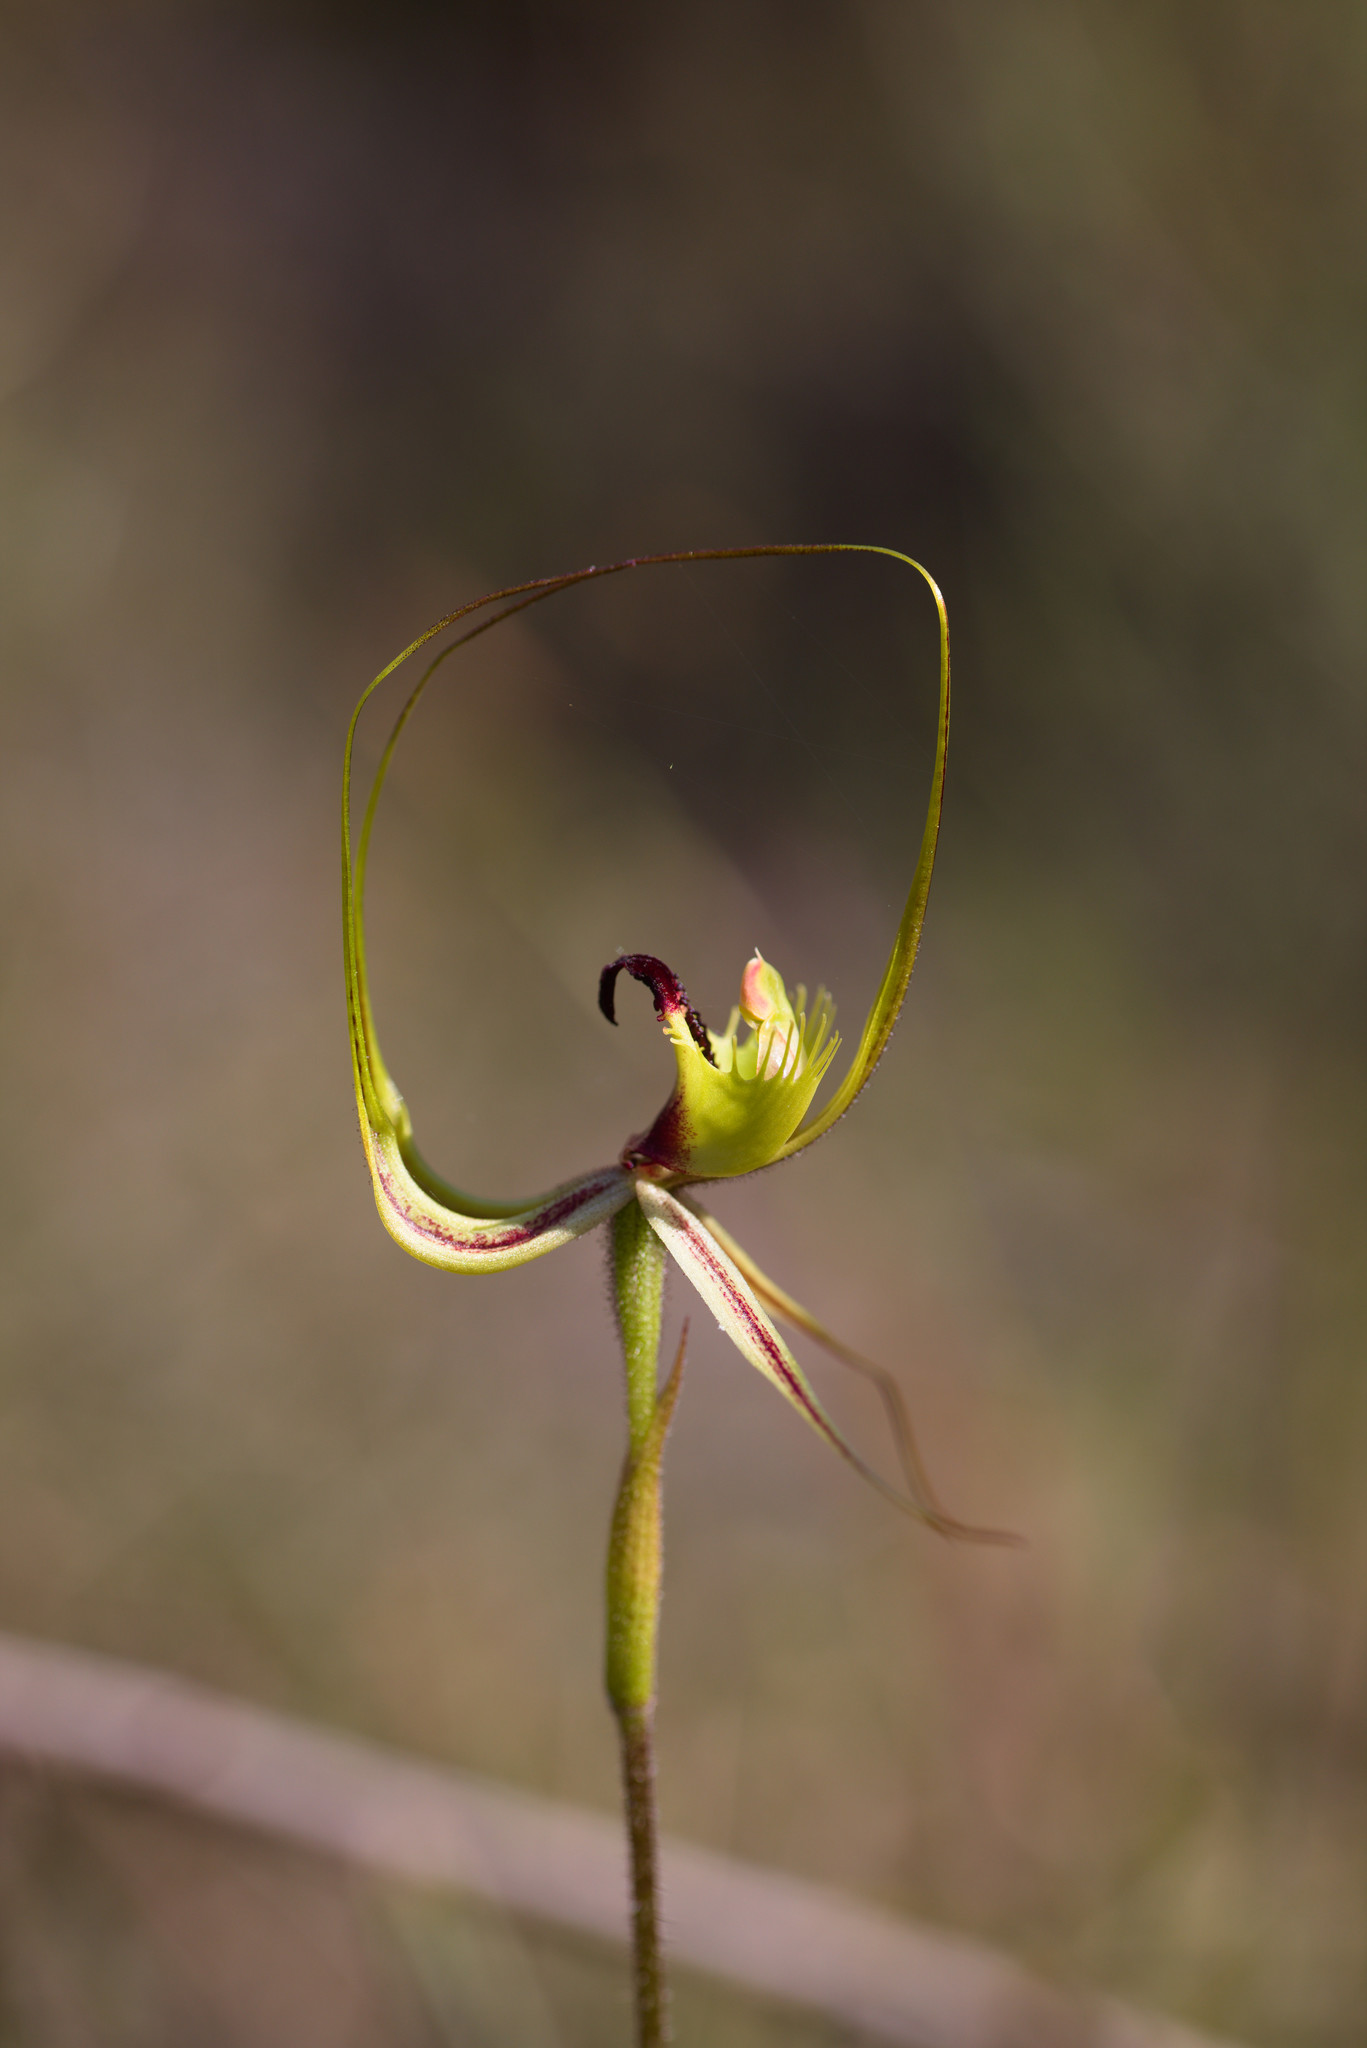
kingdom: Plantae
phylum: Tracheophyta
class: Liliopsida
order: Asparagales
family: Orchidaceae
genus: Caladenia
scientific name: Caladenia attingens
